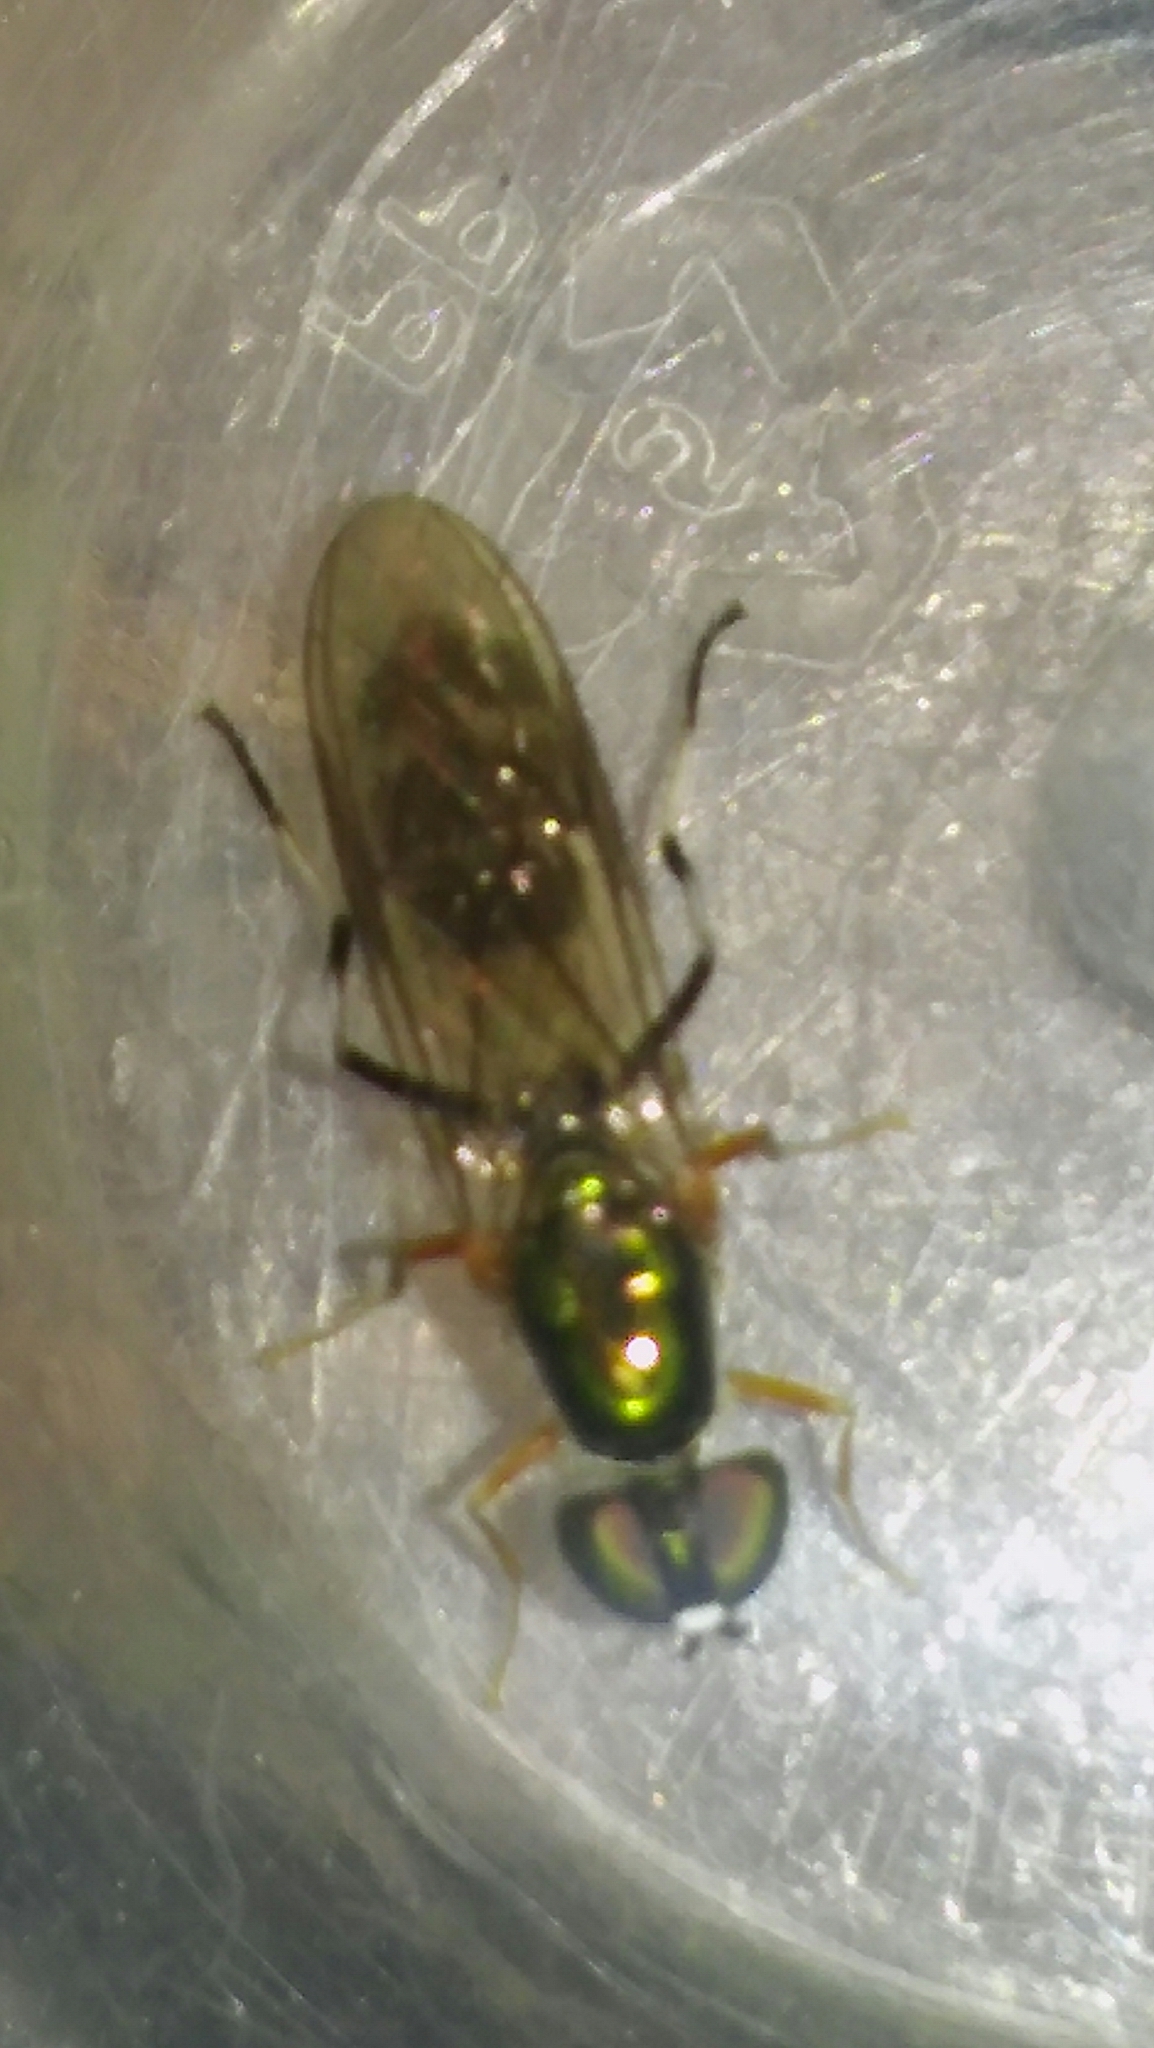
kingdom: Animalia
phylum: Arthropoda
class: Insecta
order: Diptera
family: Stratiomyidae
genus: Sargus
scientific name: Sargus fasciatus
